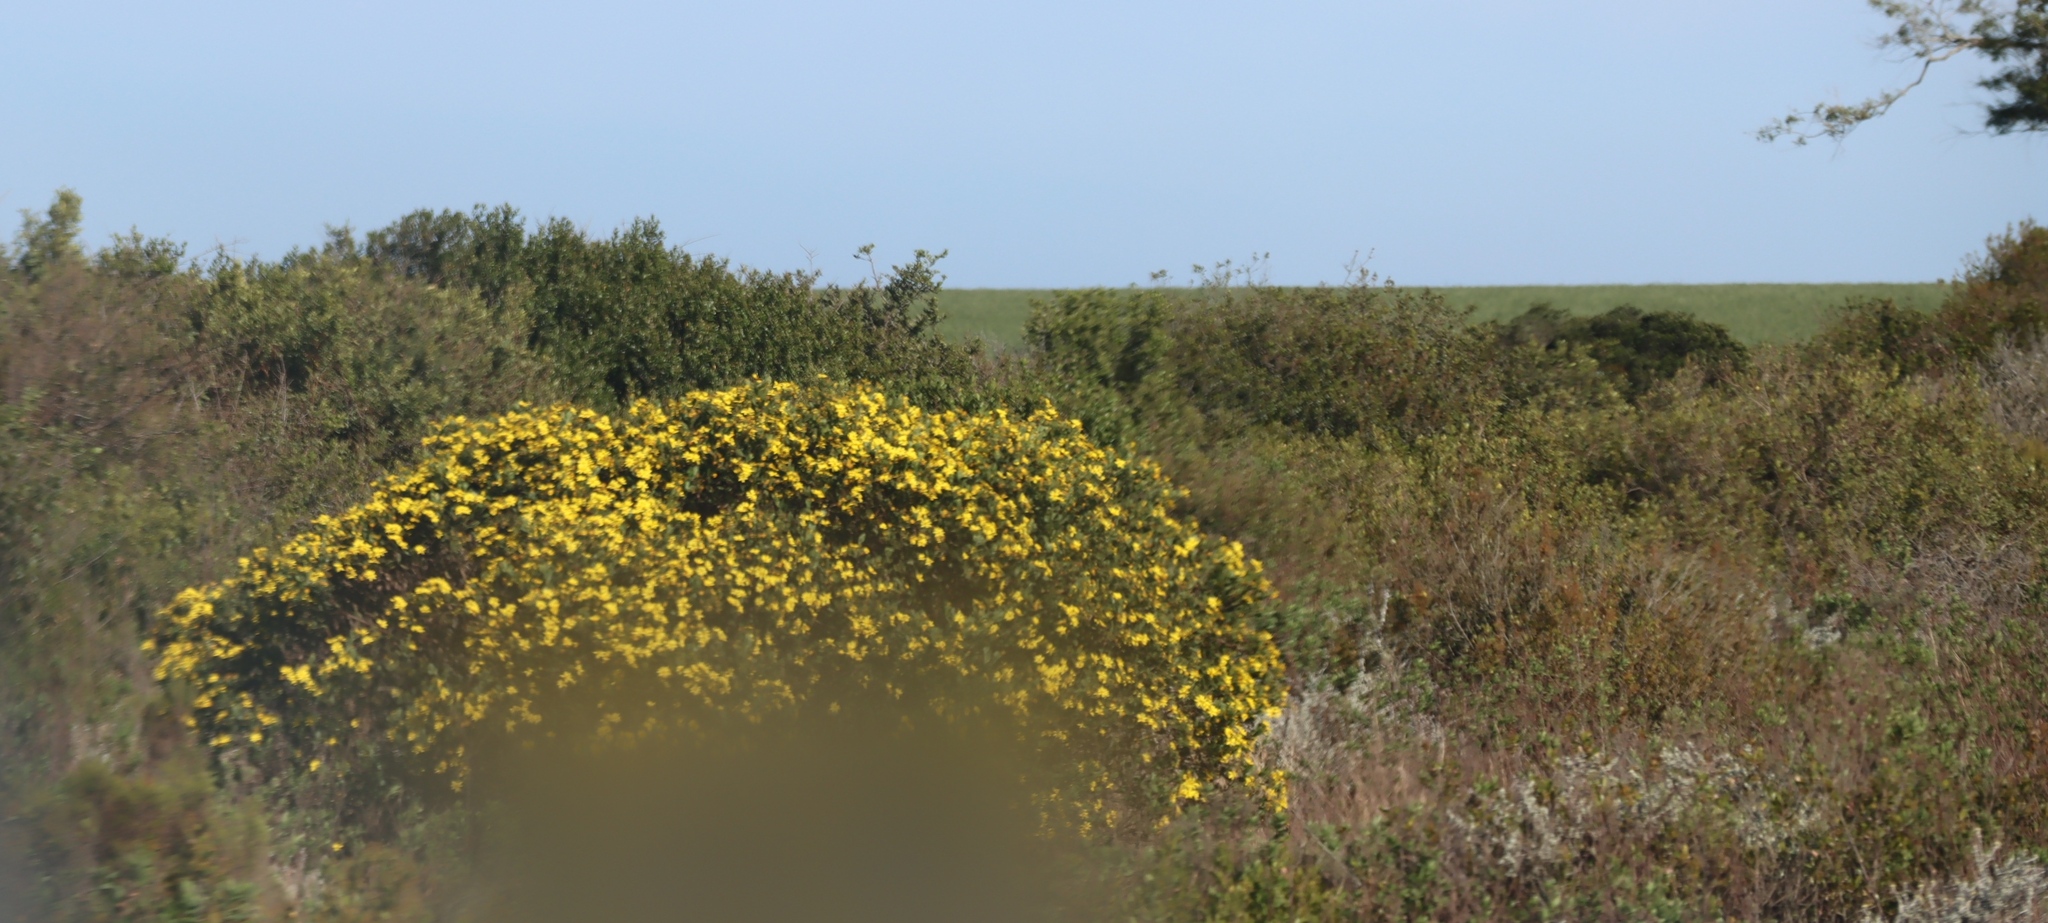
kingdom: Plantae
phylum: Tracheophyta
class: Magnoliopsida
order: Asterales
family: Asteraceae
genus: Osteospermum
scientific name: Osteospermum moniliferum
